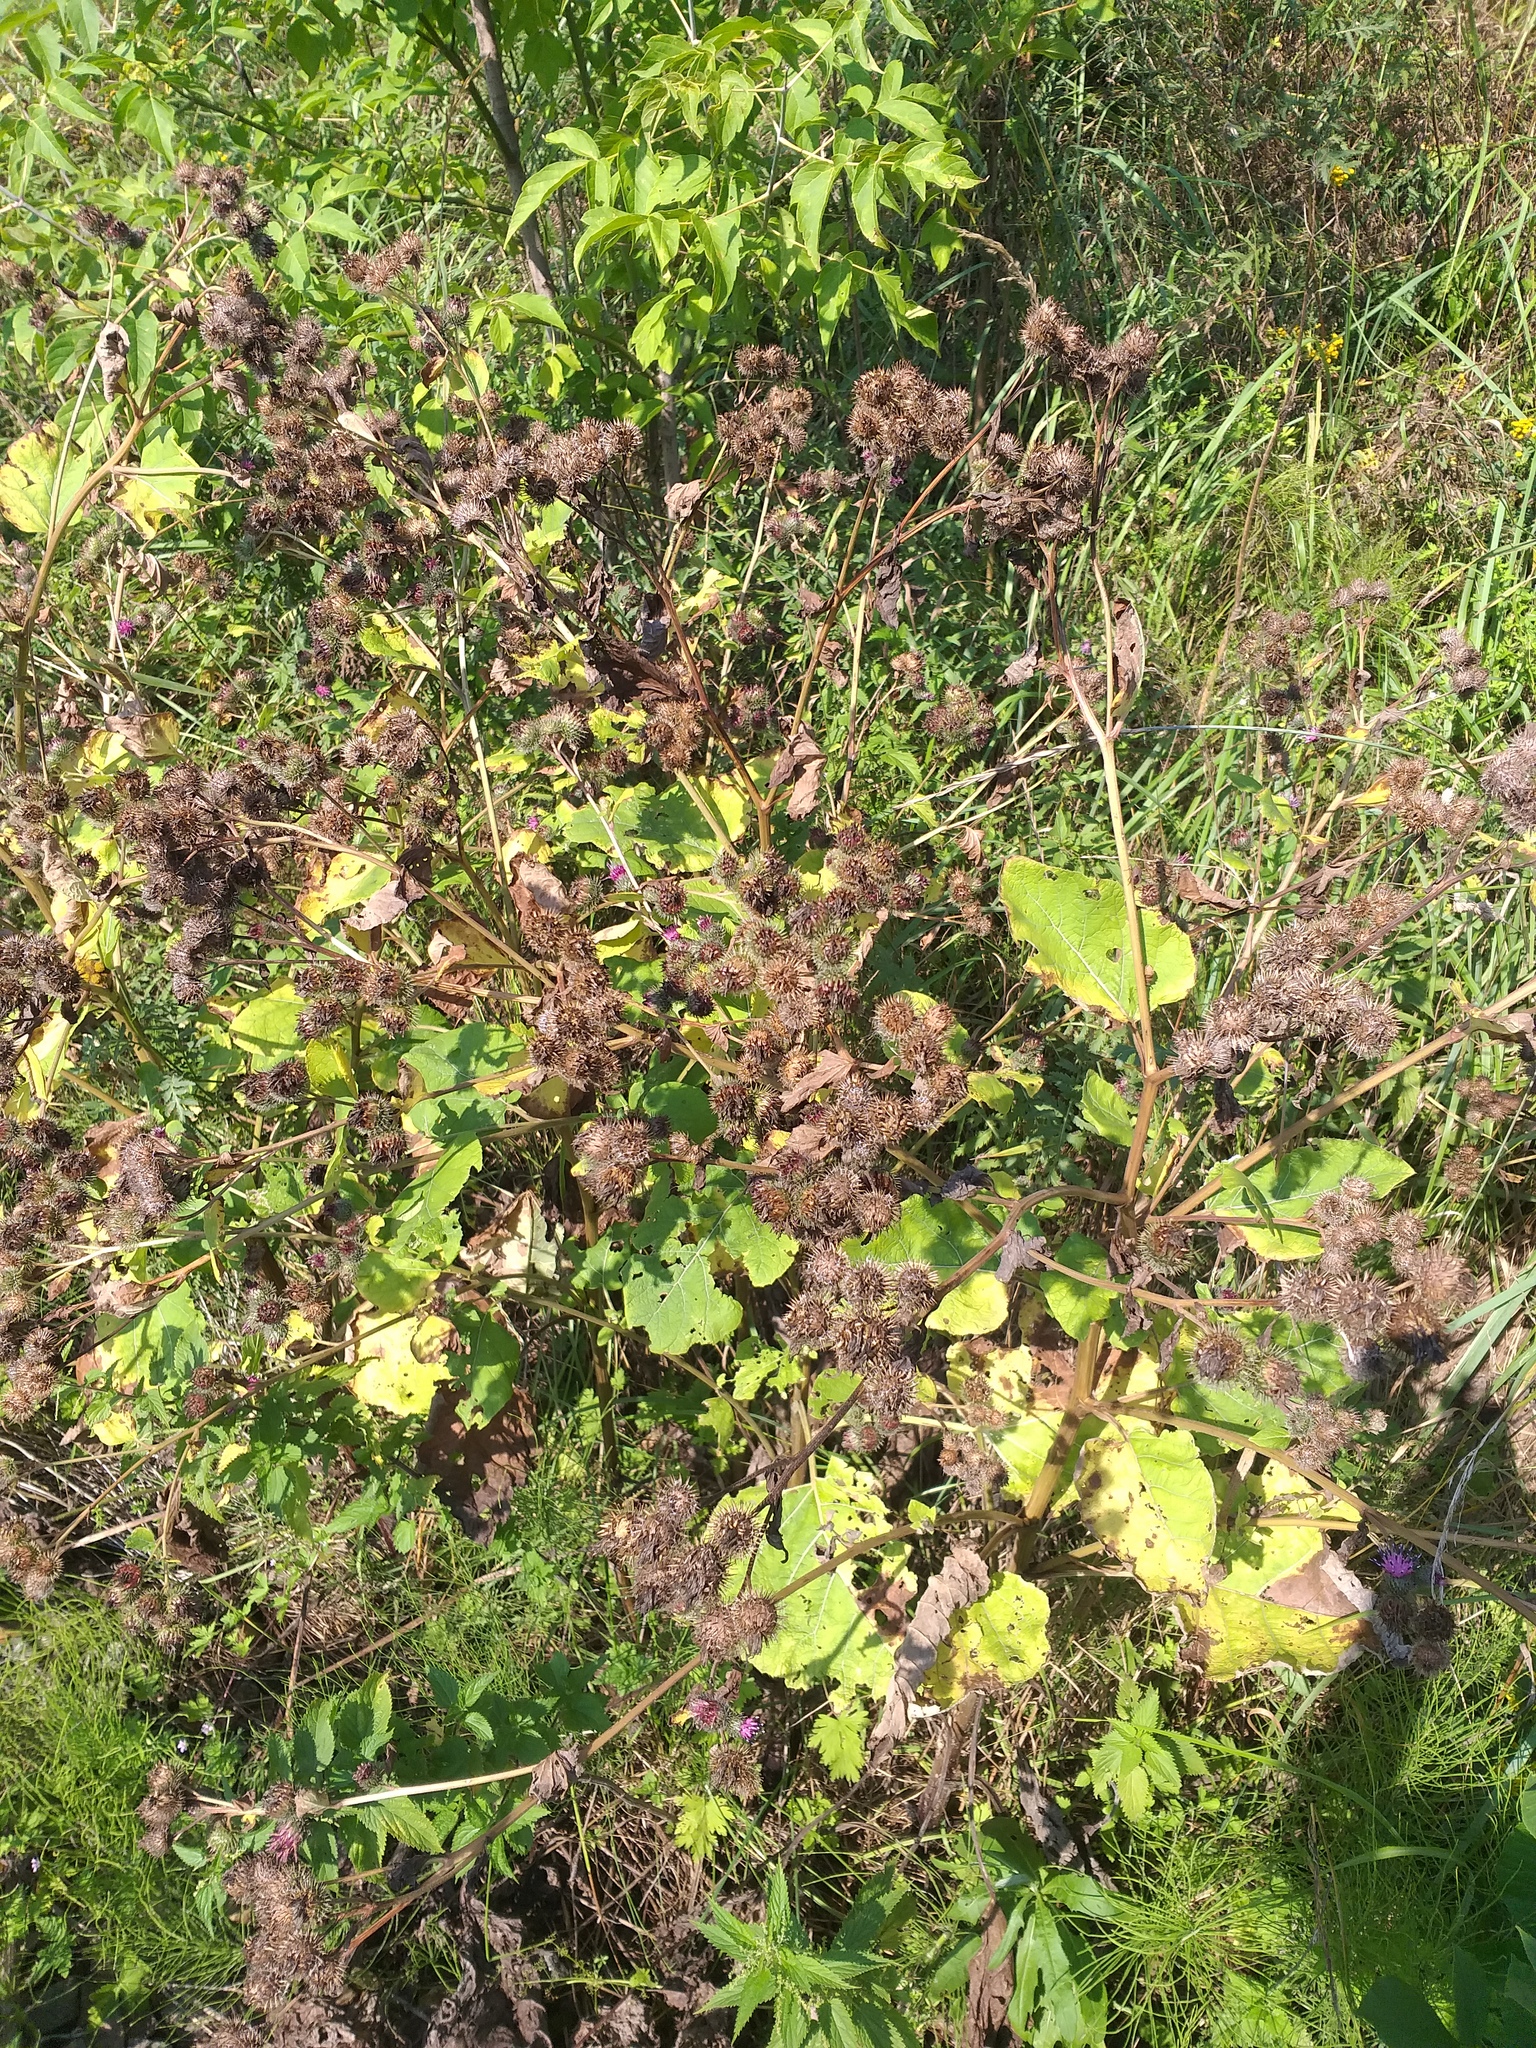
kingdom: Plantae
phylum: Tracheophyta
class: Magnoliopsida
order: Asterales
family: Asteraceae
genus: Arctium
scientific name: Arctium tomentosum
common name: Woolly burdock
